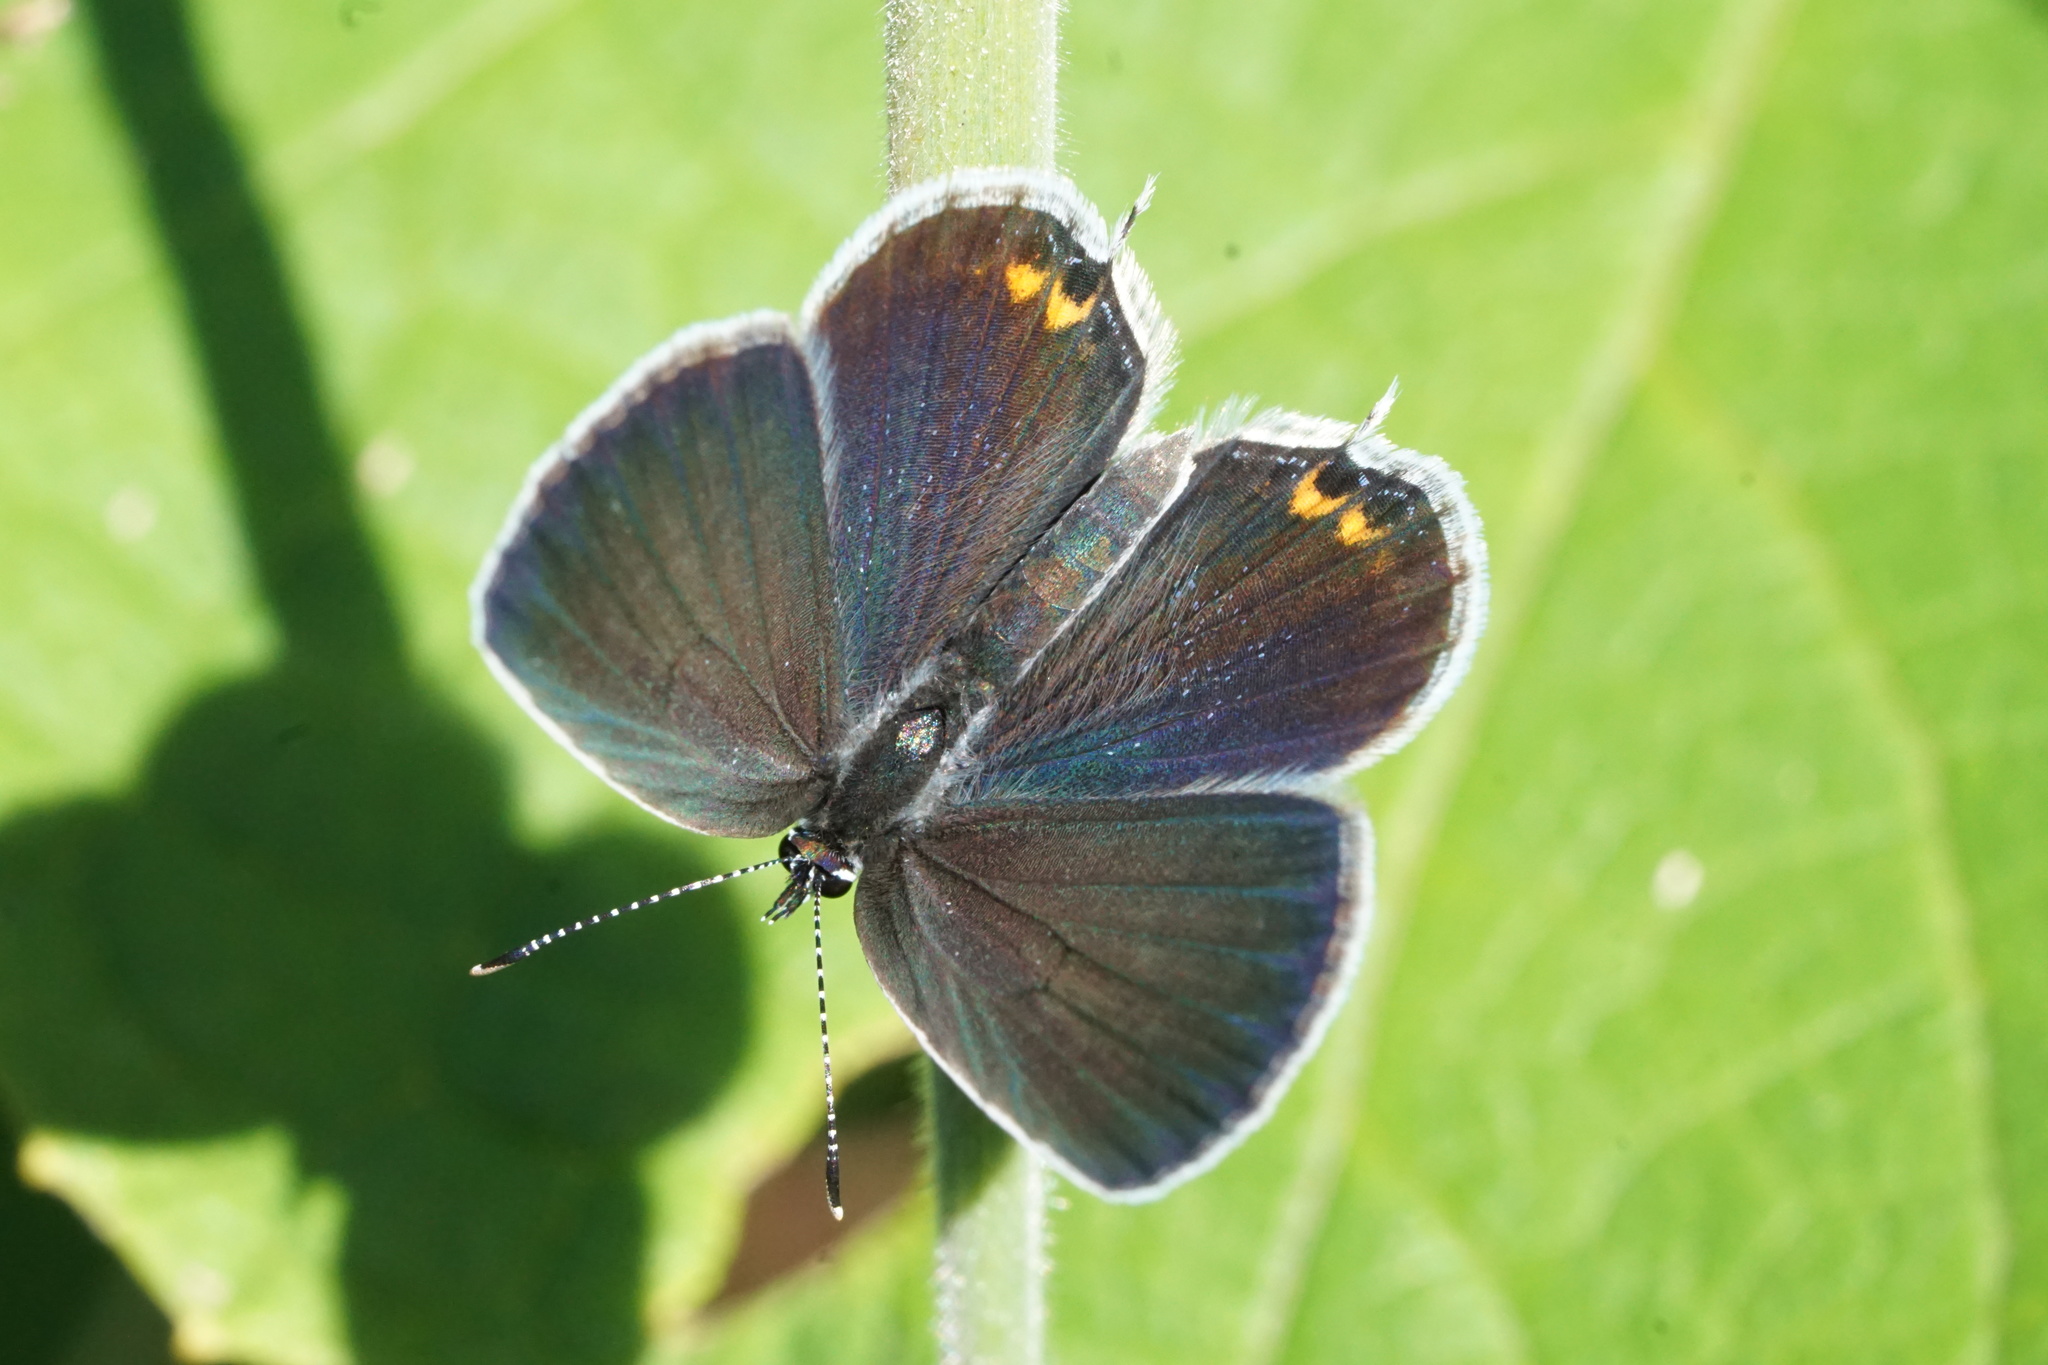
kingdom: Animalia
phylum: Arthropoda
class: Insecta
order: Lepidoptera
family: Lycaenidae
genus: Elkalyce
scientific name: Elkalyce comyntas
